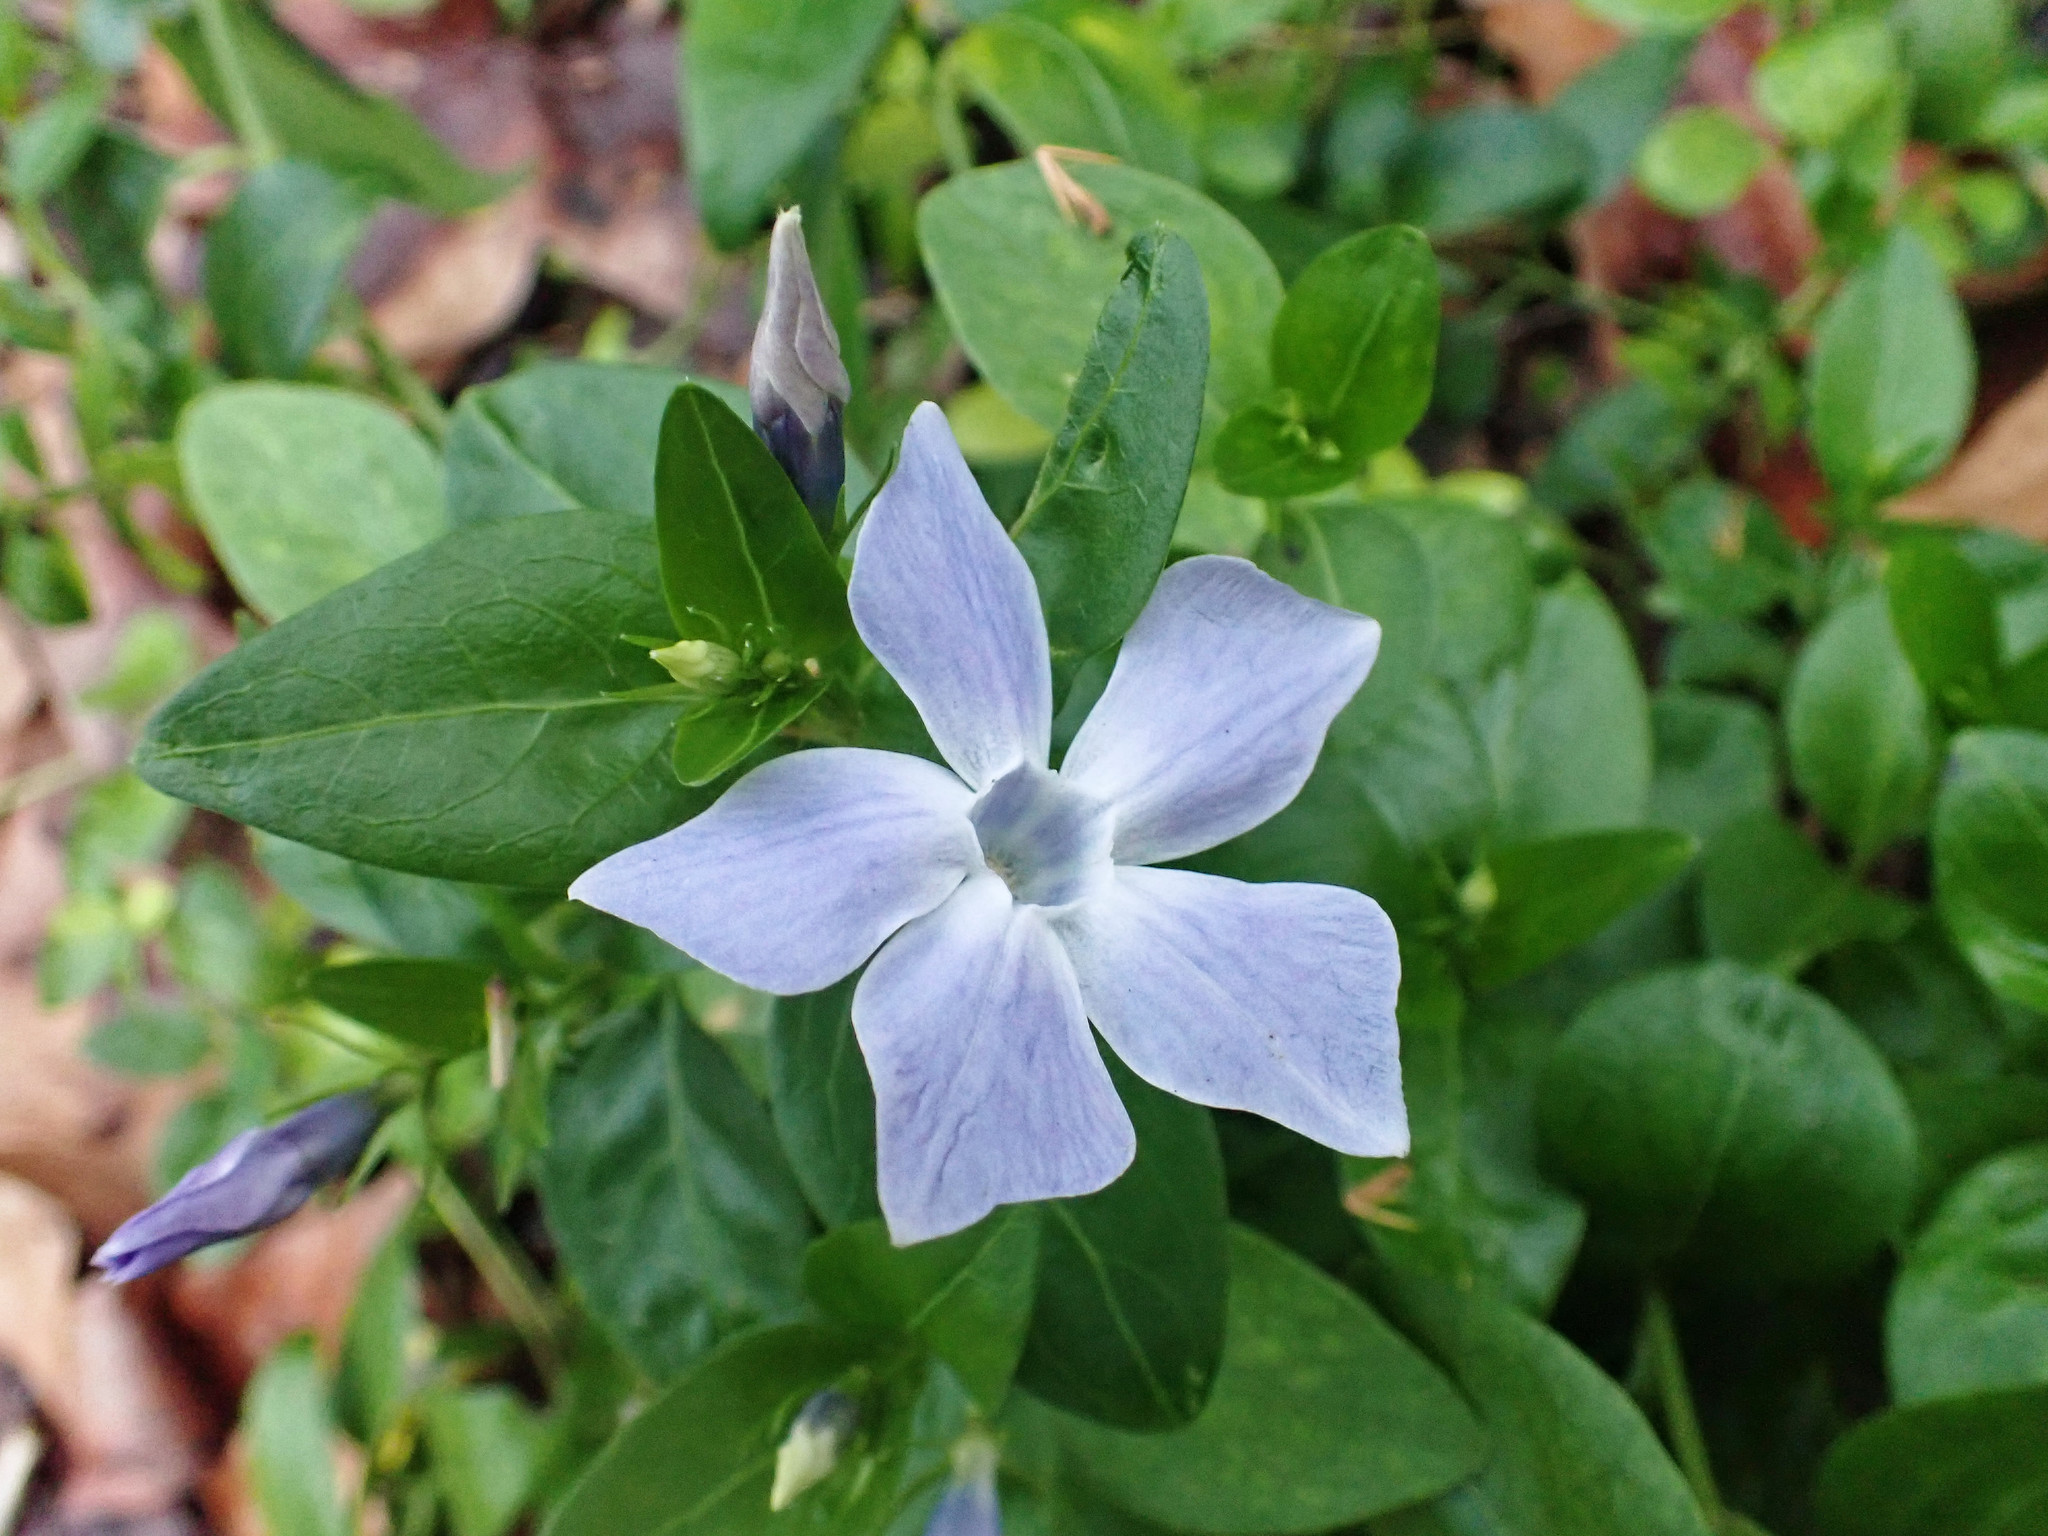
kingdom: Plantae
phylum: Tracheophyta
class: Magnoliopsida
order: Gentianales
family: Apocynaceae
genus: Vinca
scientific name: Vinca difformis
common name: Intermediate periwinkle
